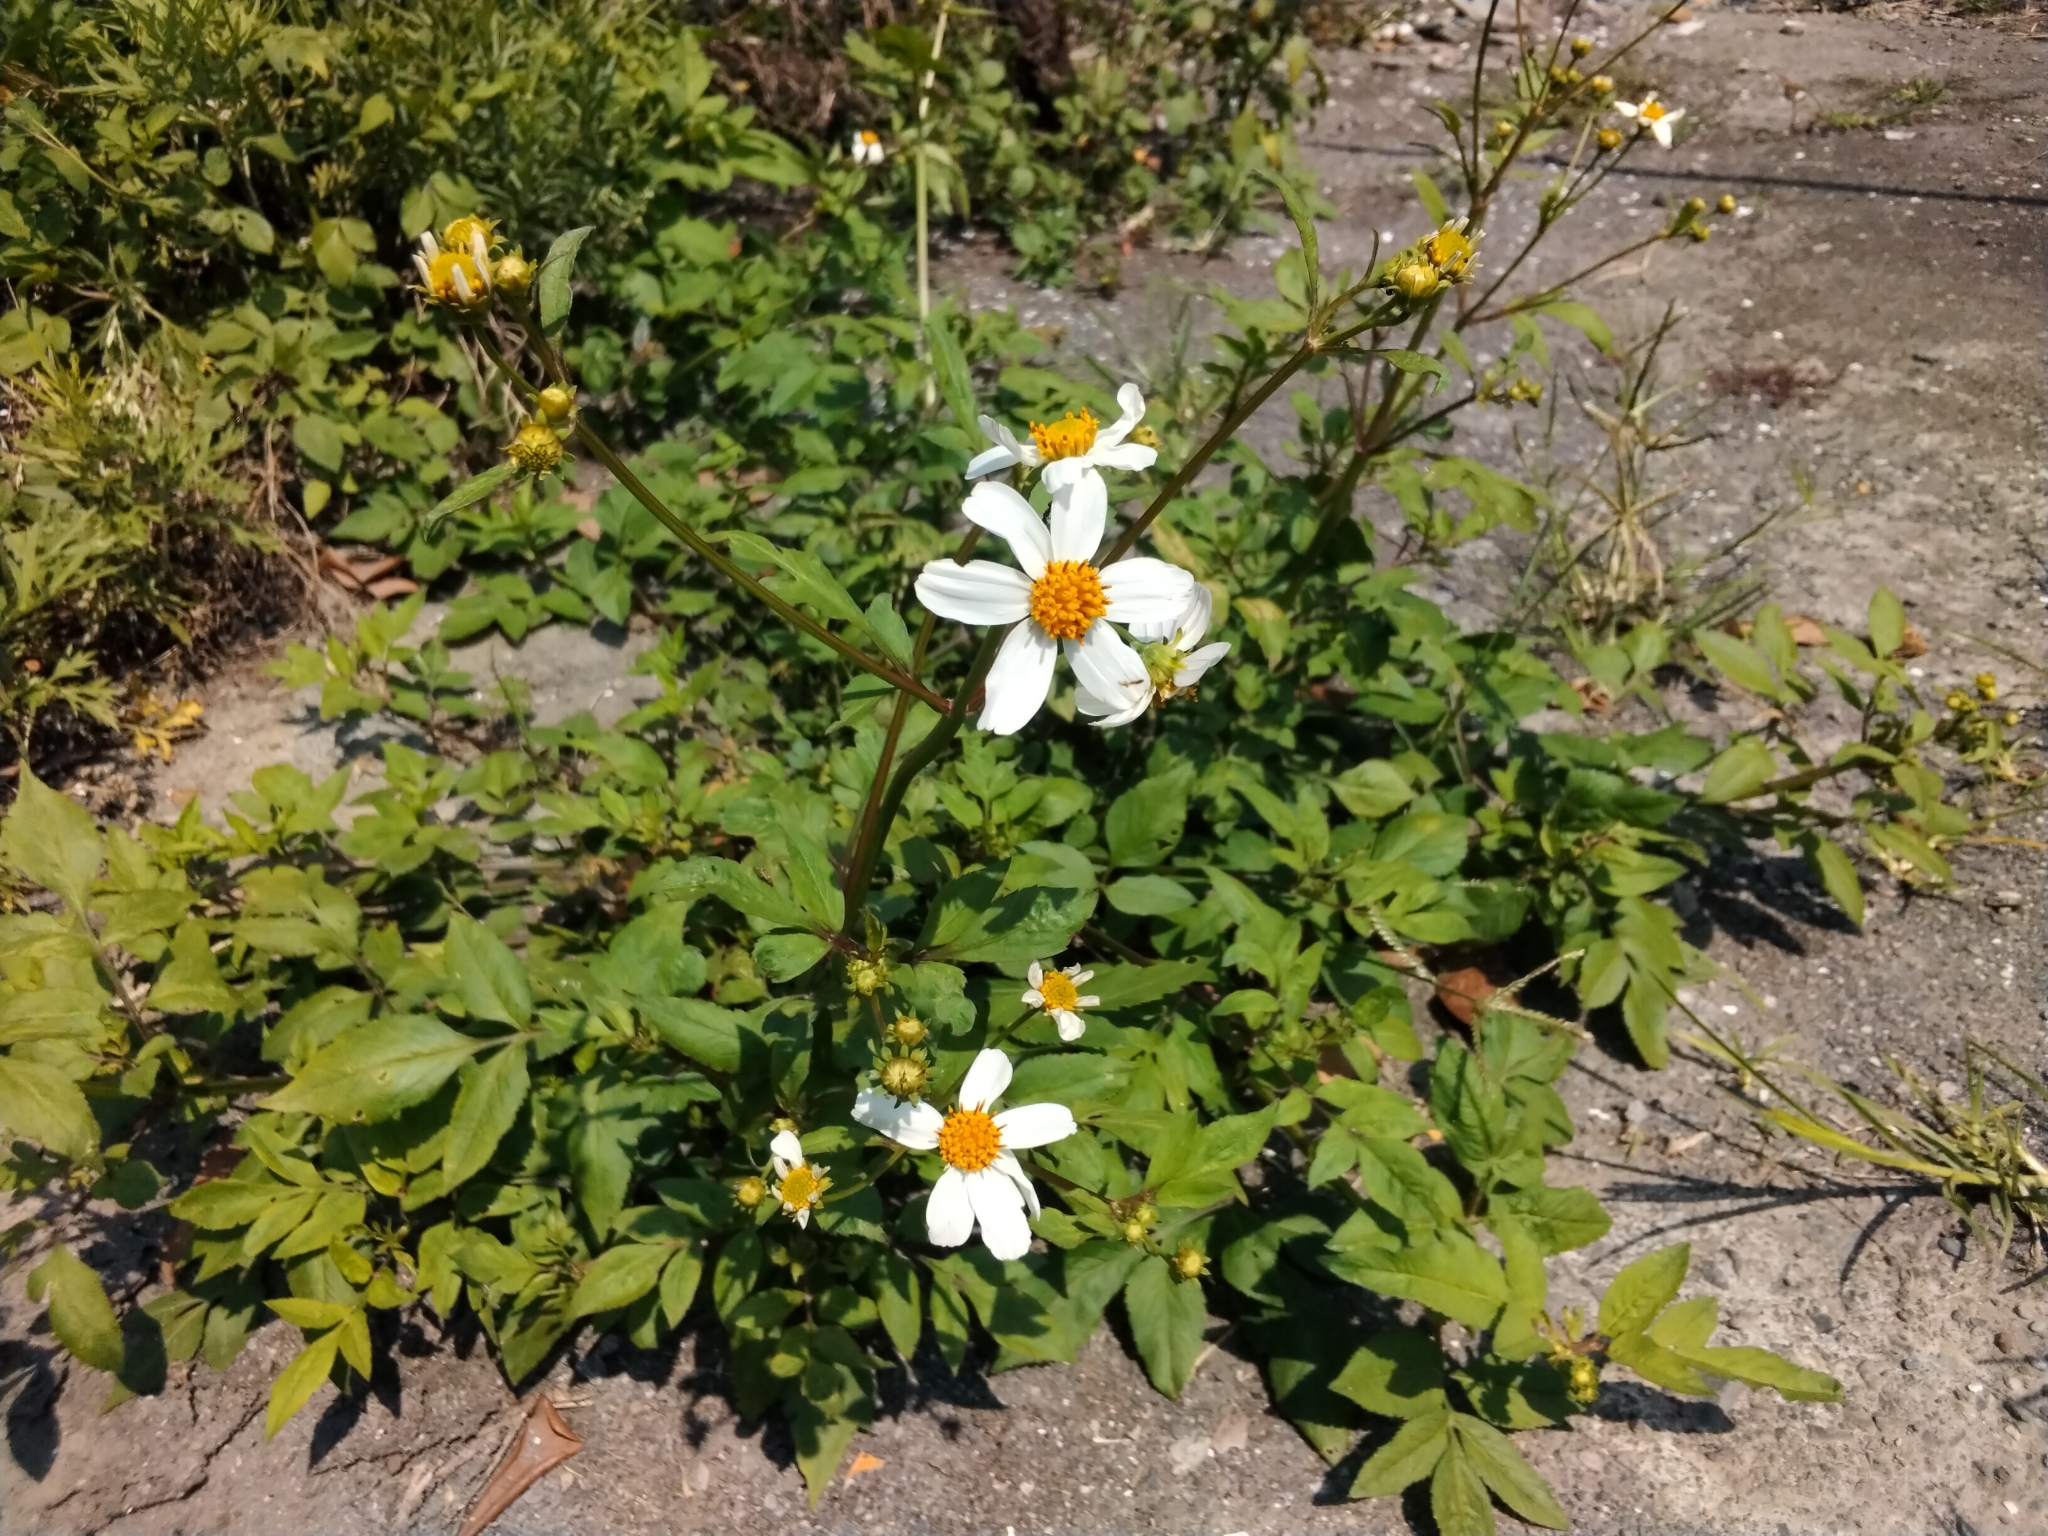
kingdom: Plantae
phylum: Tracheophyta
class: Magnoliopsida
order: Asterales
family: Asteraceae
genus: Bidens
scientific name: Bidens alba
